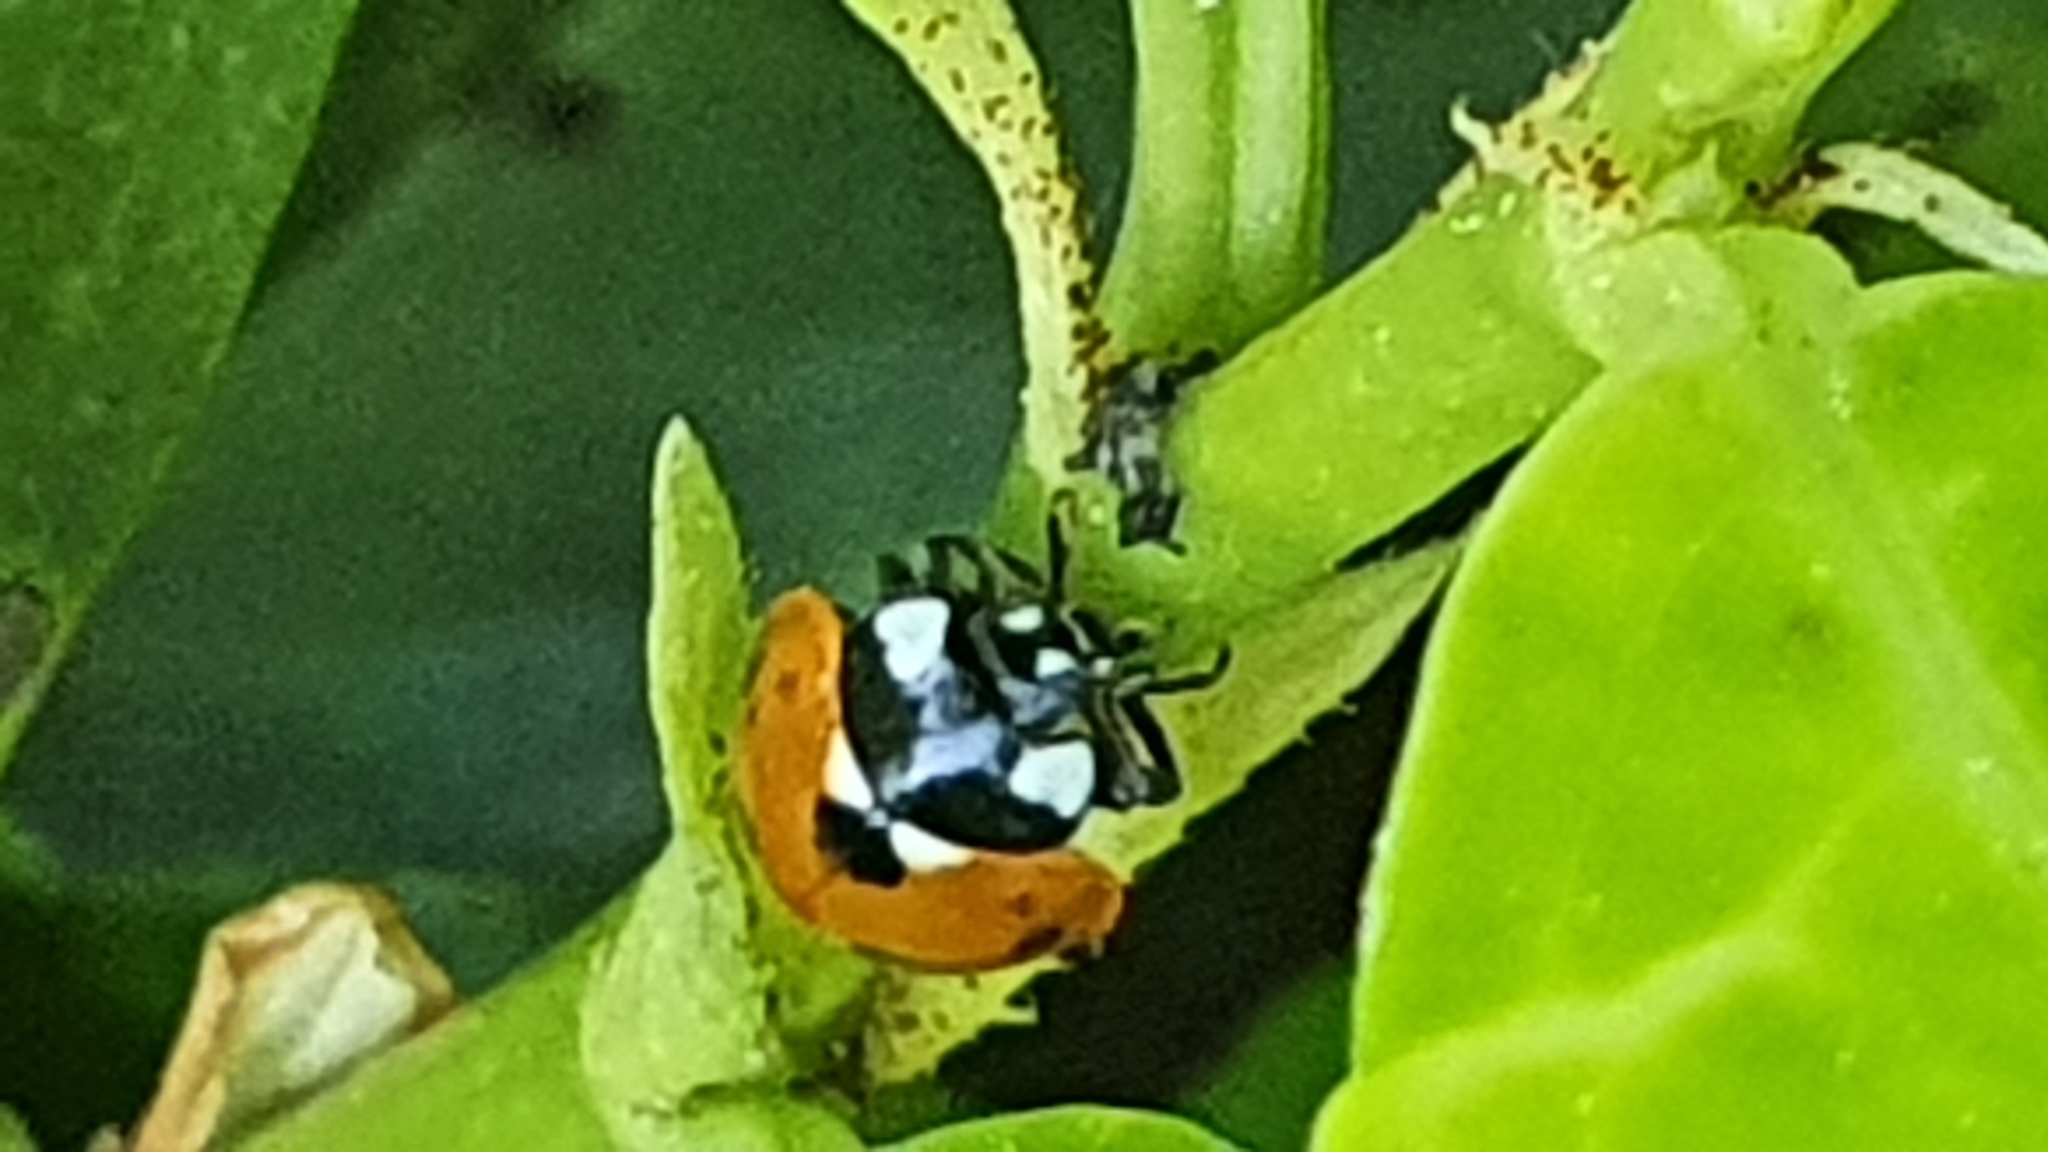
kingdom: Animalia
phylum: Arthropoda
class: Insecta
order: Coleoptera
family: Coccinellidae
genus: Coccinella
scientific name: Coccinella septempunctata
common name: Sevenspotted lady beetle
